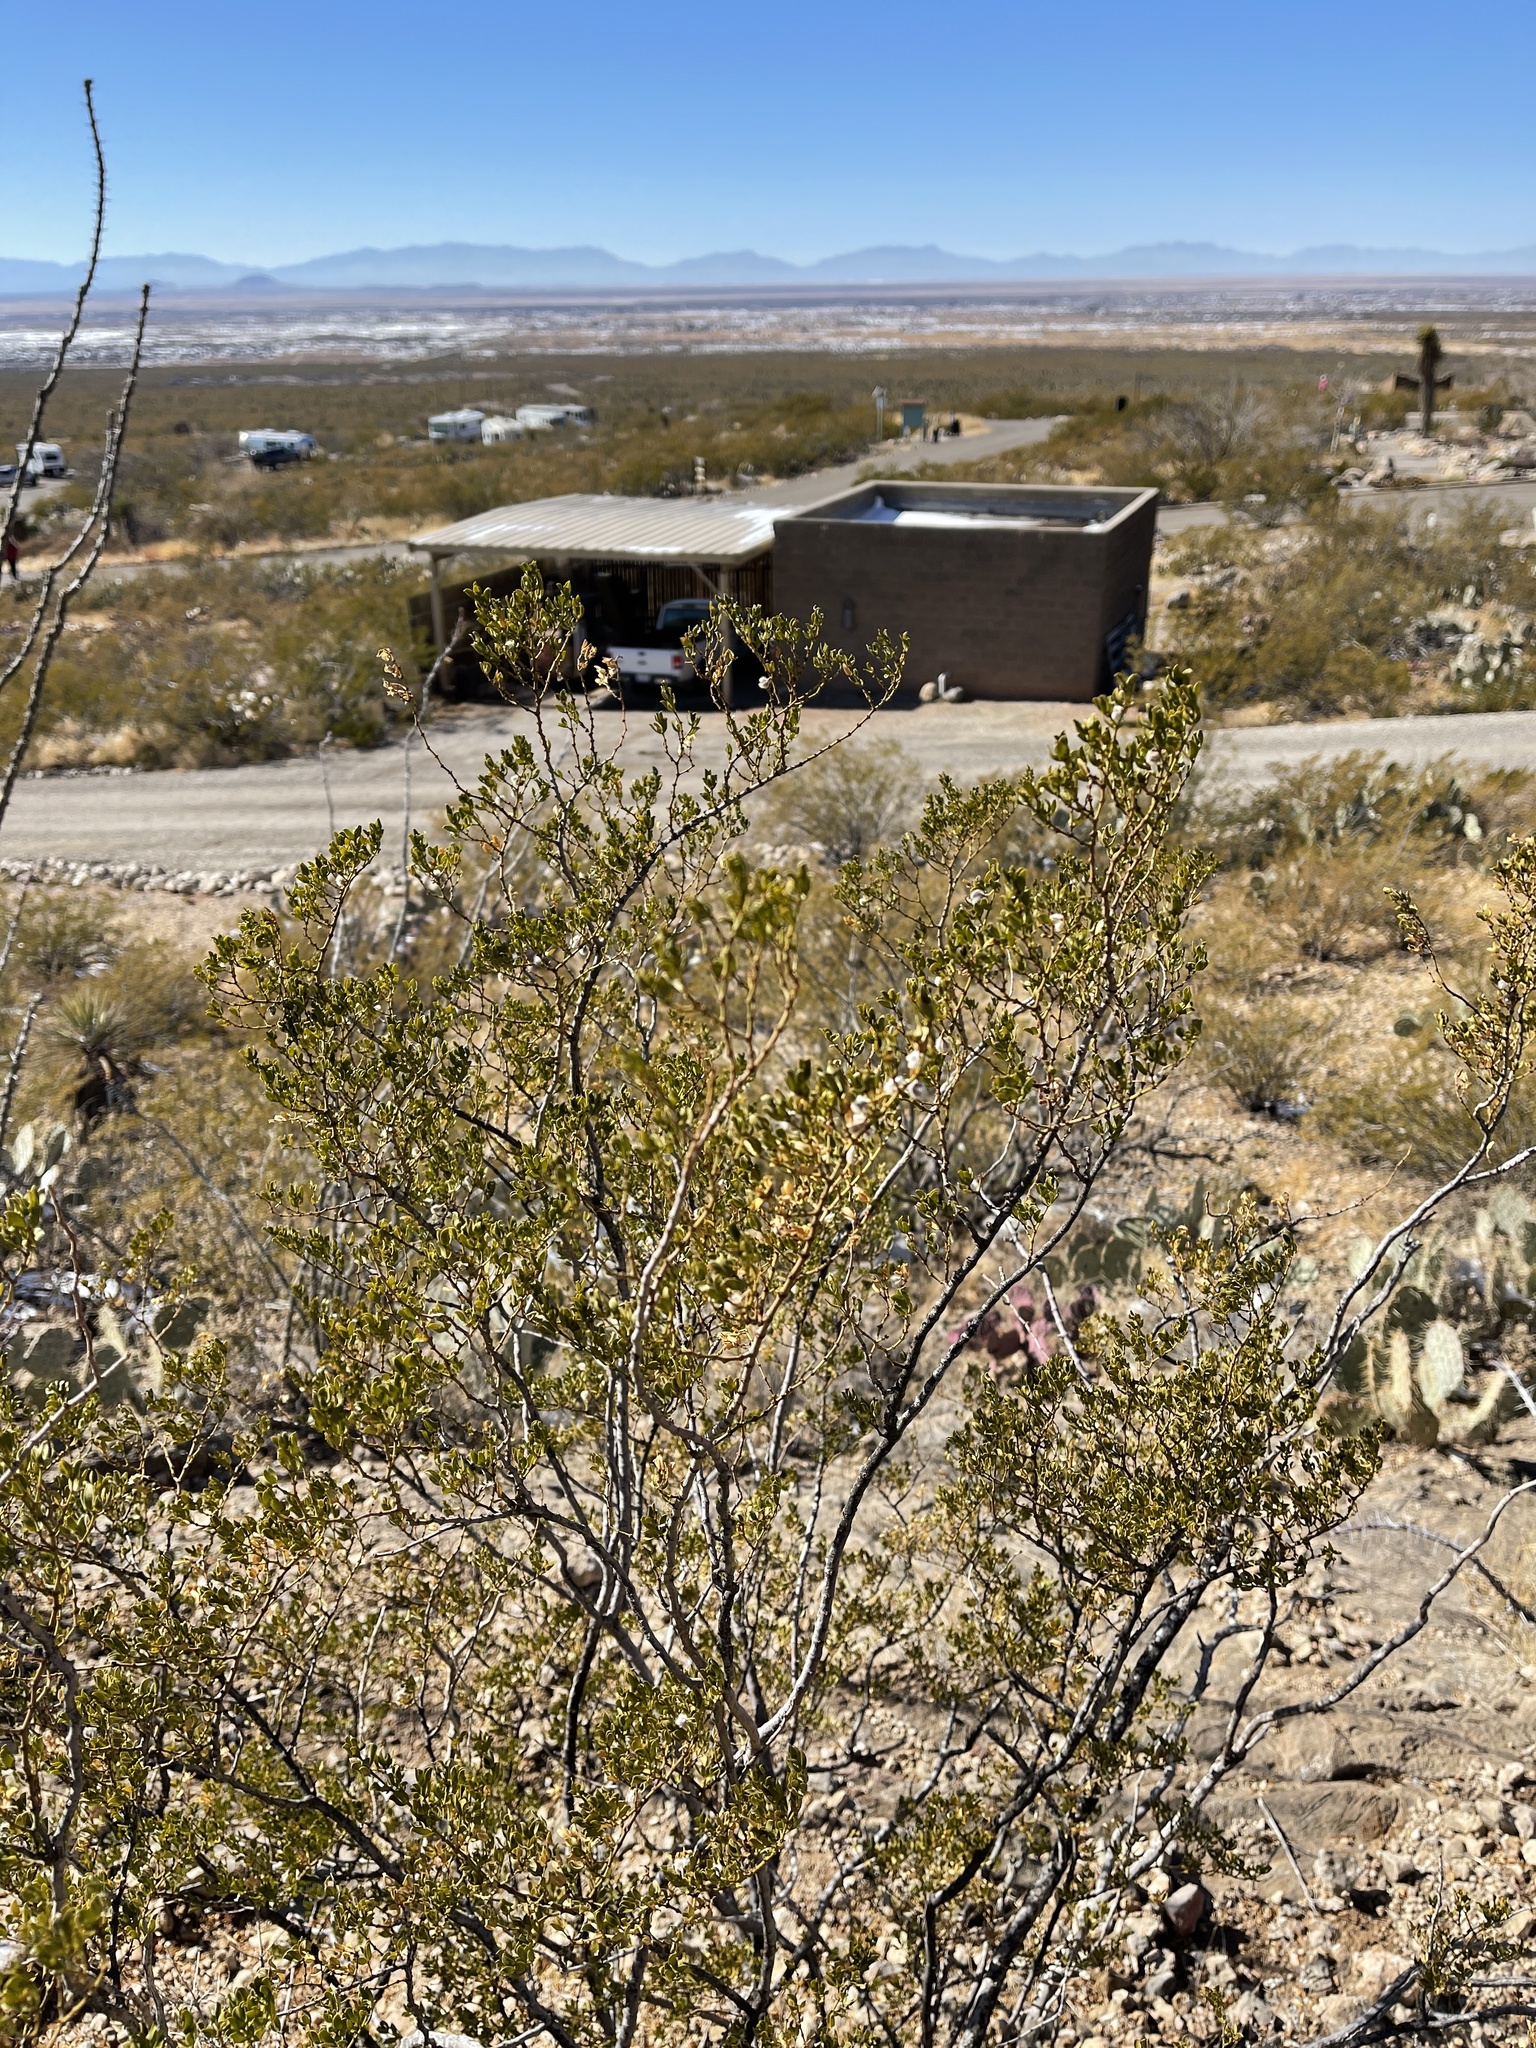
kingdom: Plantae
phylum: Tracheophyta
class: Magnoliopsida
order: Zygophyllales
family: Zygophyllaceae
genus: Larrea
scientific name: Larrea tridentata
